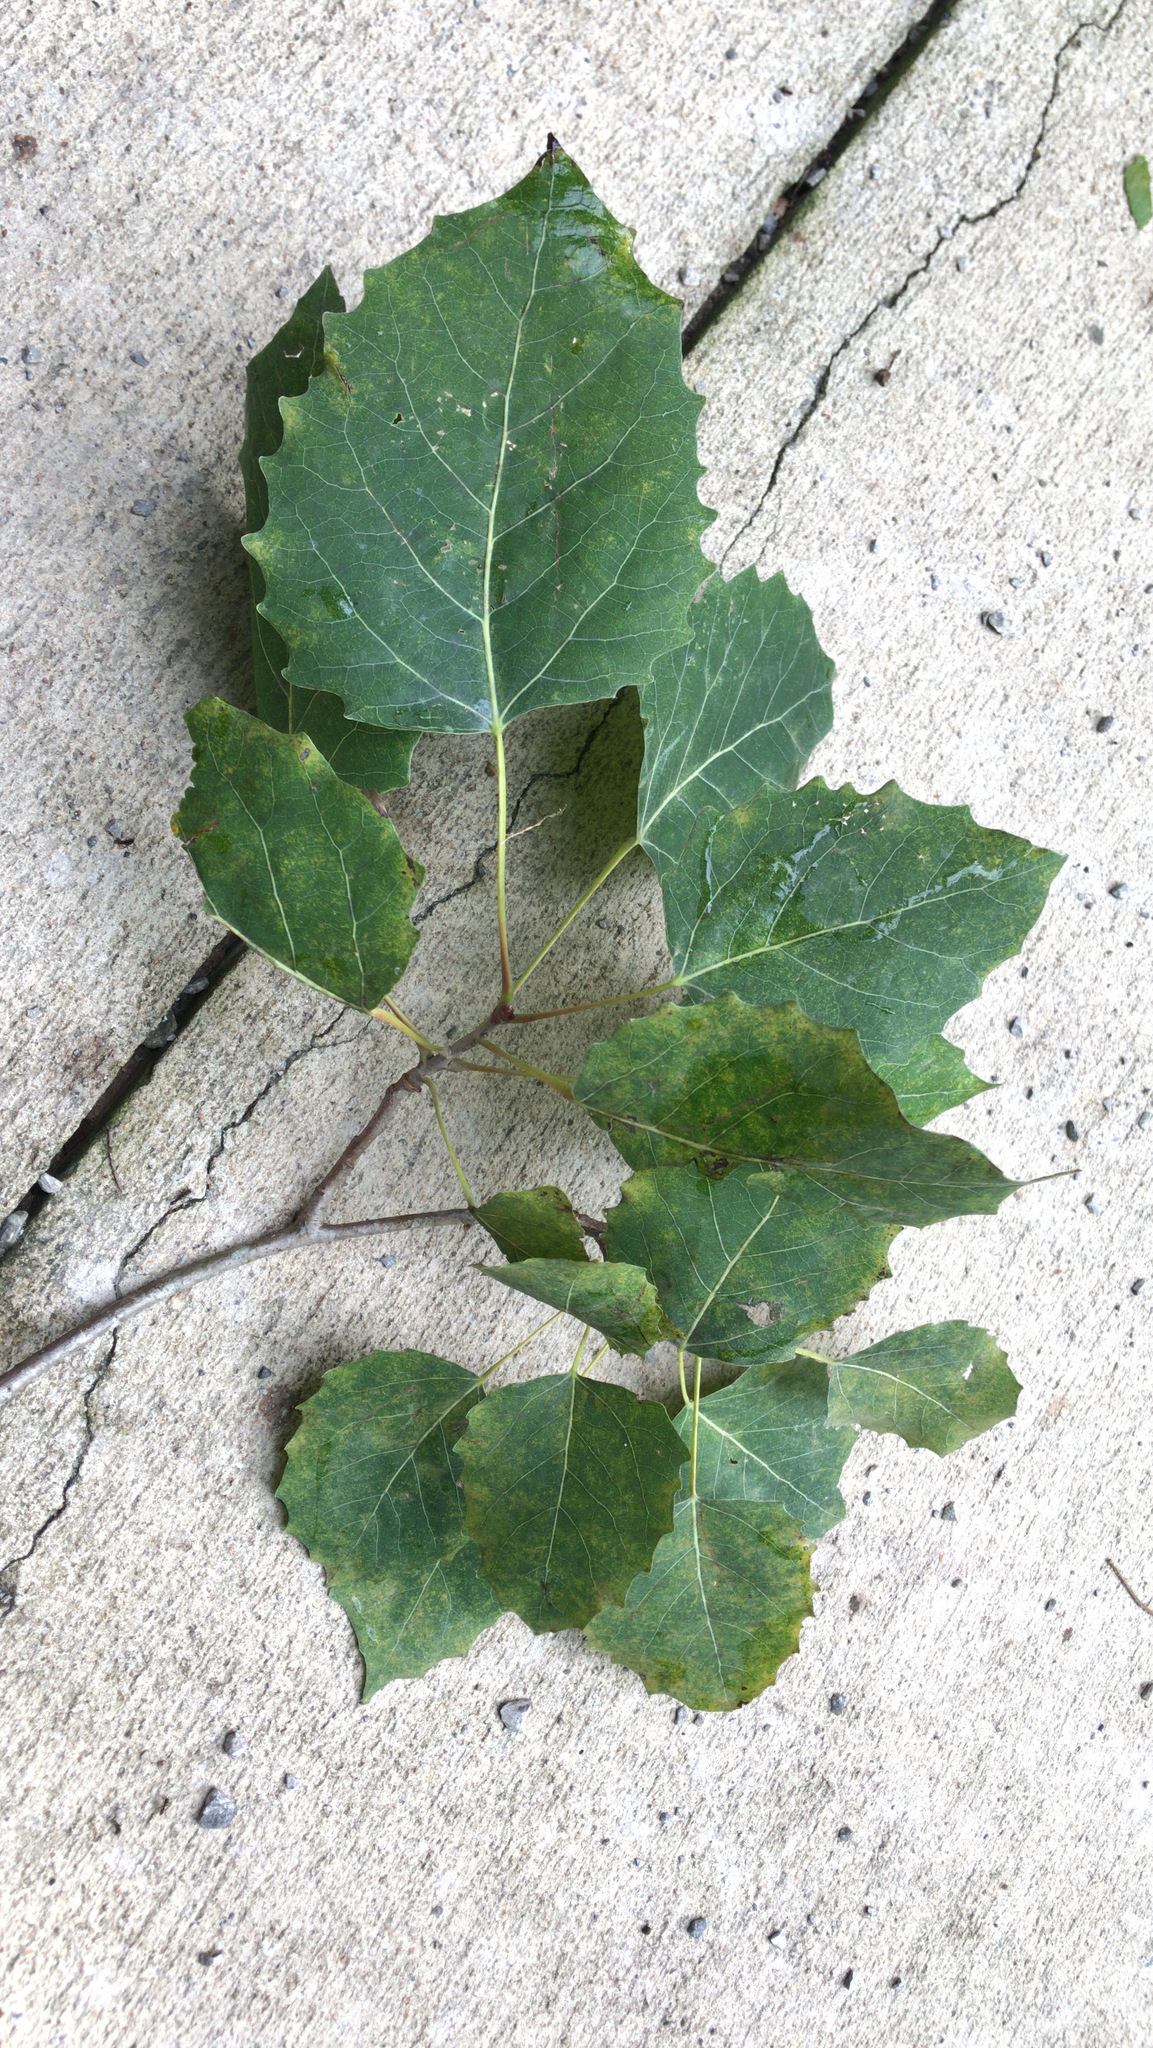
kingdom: Plantae
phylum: Tracheophyta
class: Magnoliopsida
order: Malpighiales
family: Salicaceae
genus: Populus
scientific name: Populus grandidentata
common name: Bigtooth aspen
